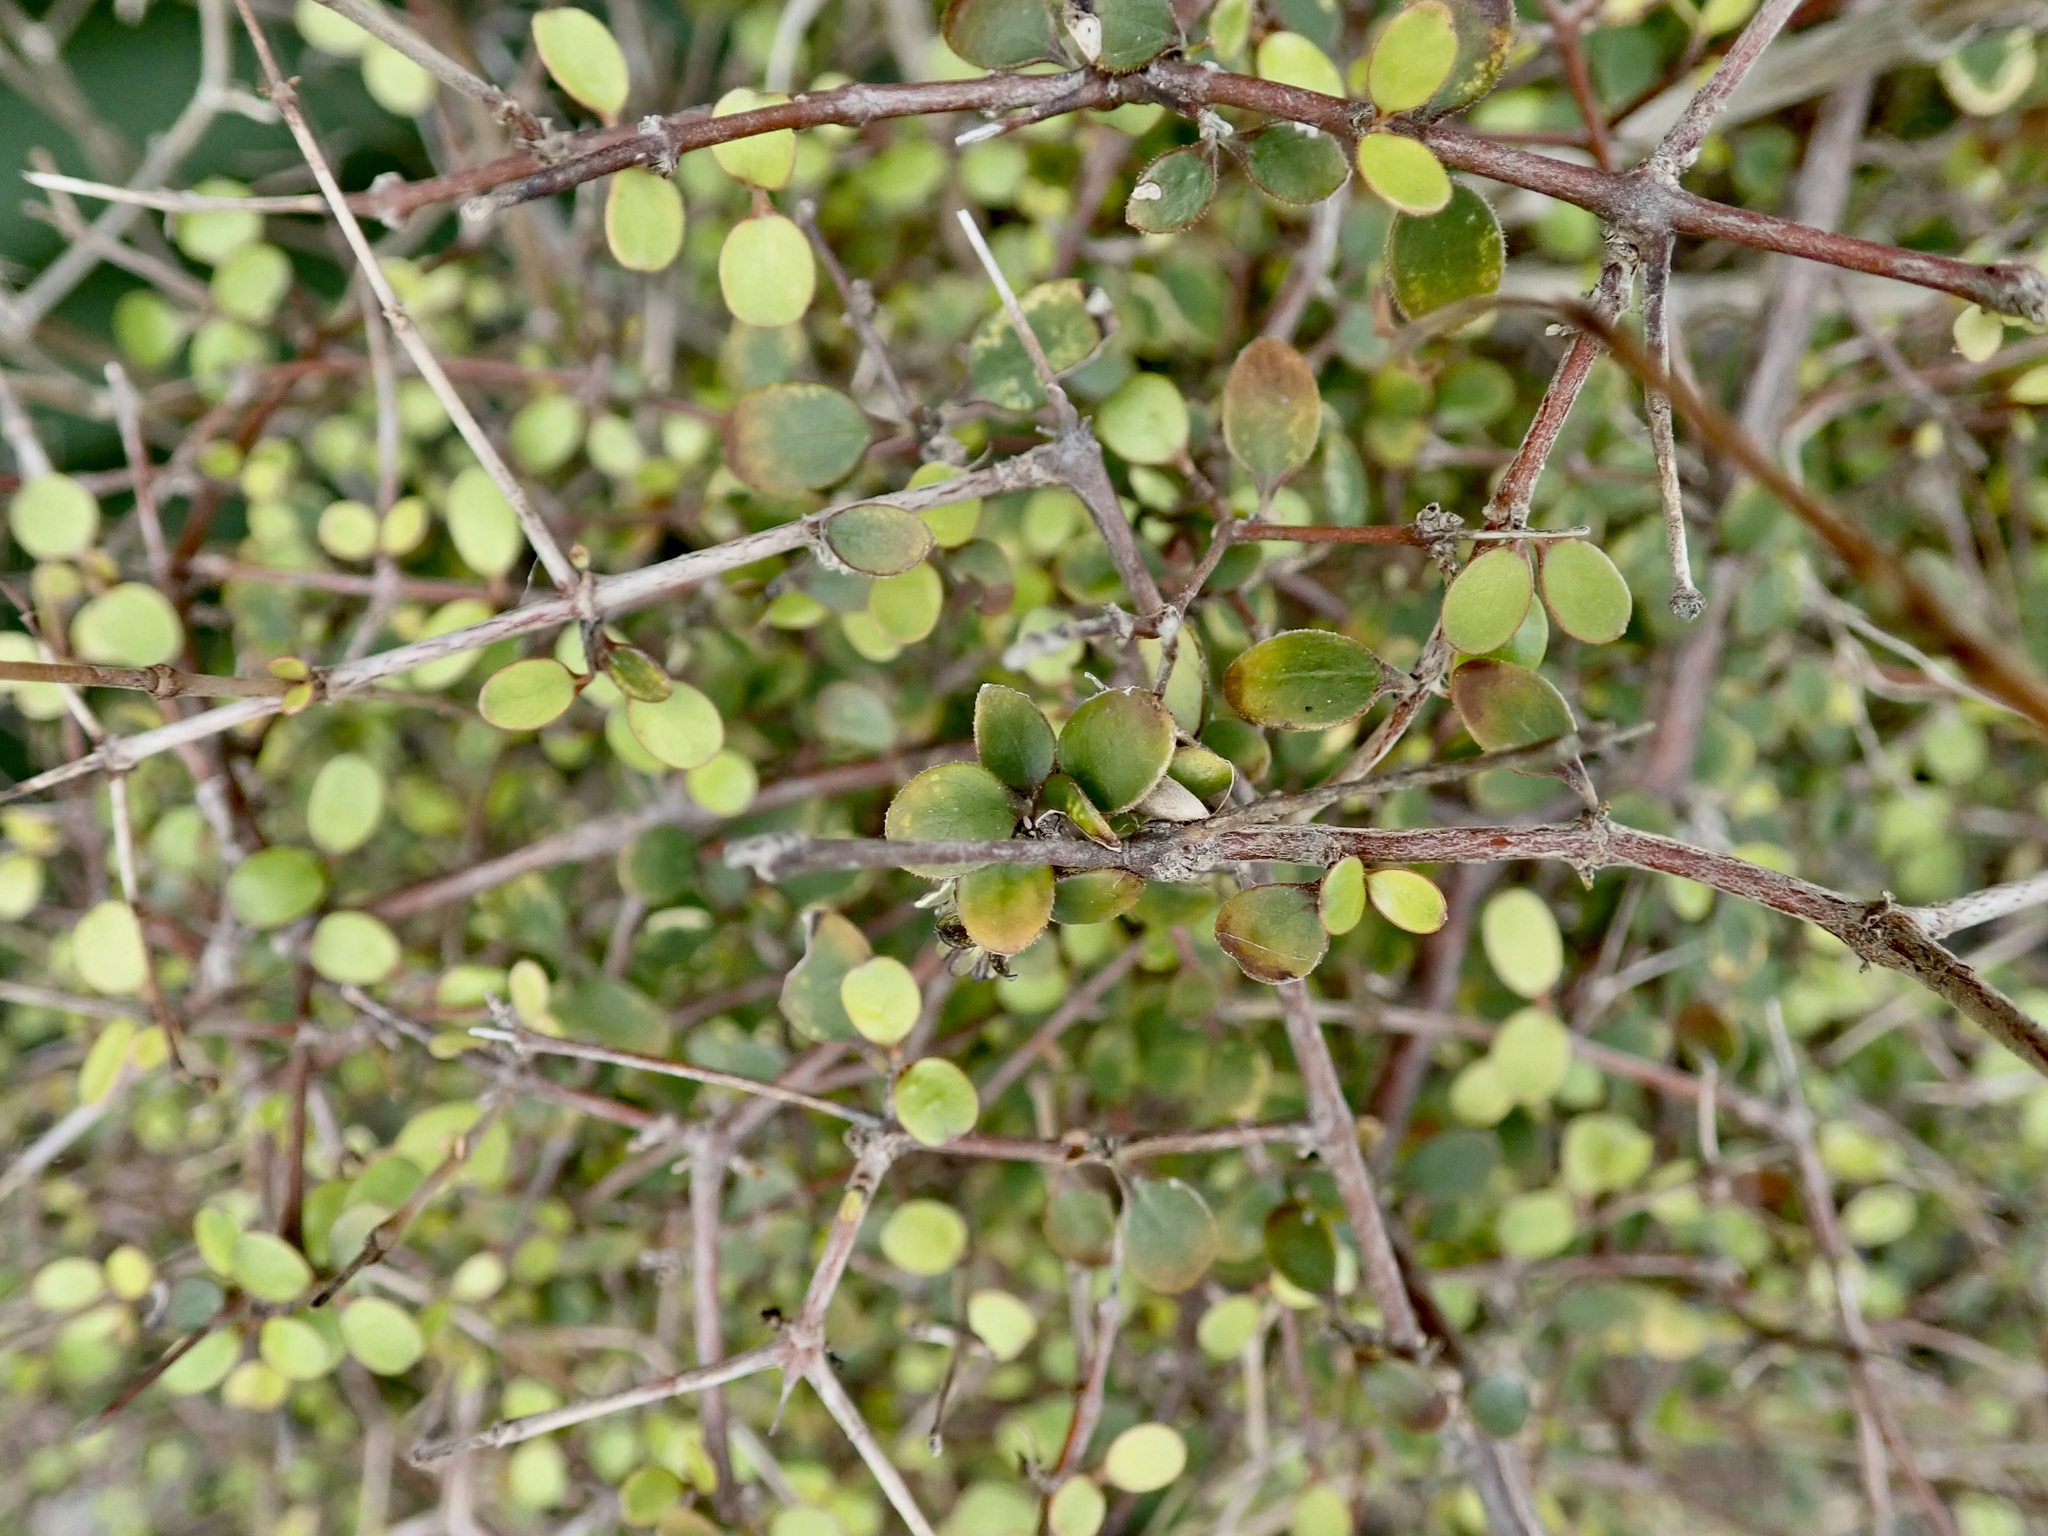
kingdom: Plantae
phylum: Tracheophyta
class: Magnoliopsida
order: Gentianales
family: Rubiaceae
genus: Coprosma
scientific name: Coprosma crassifolia
